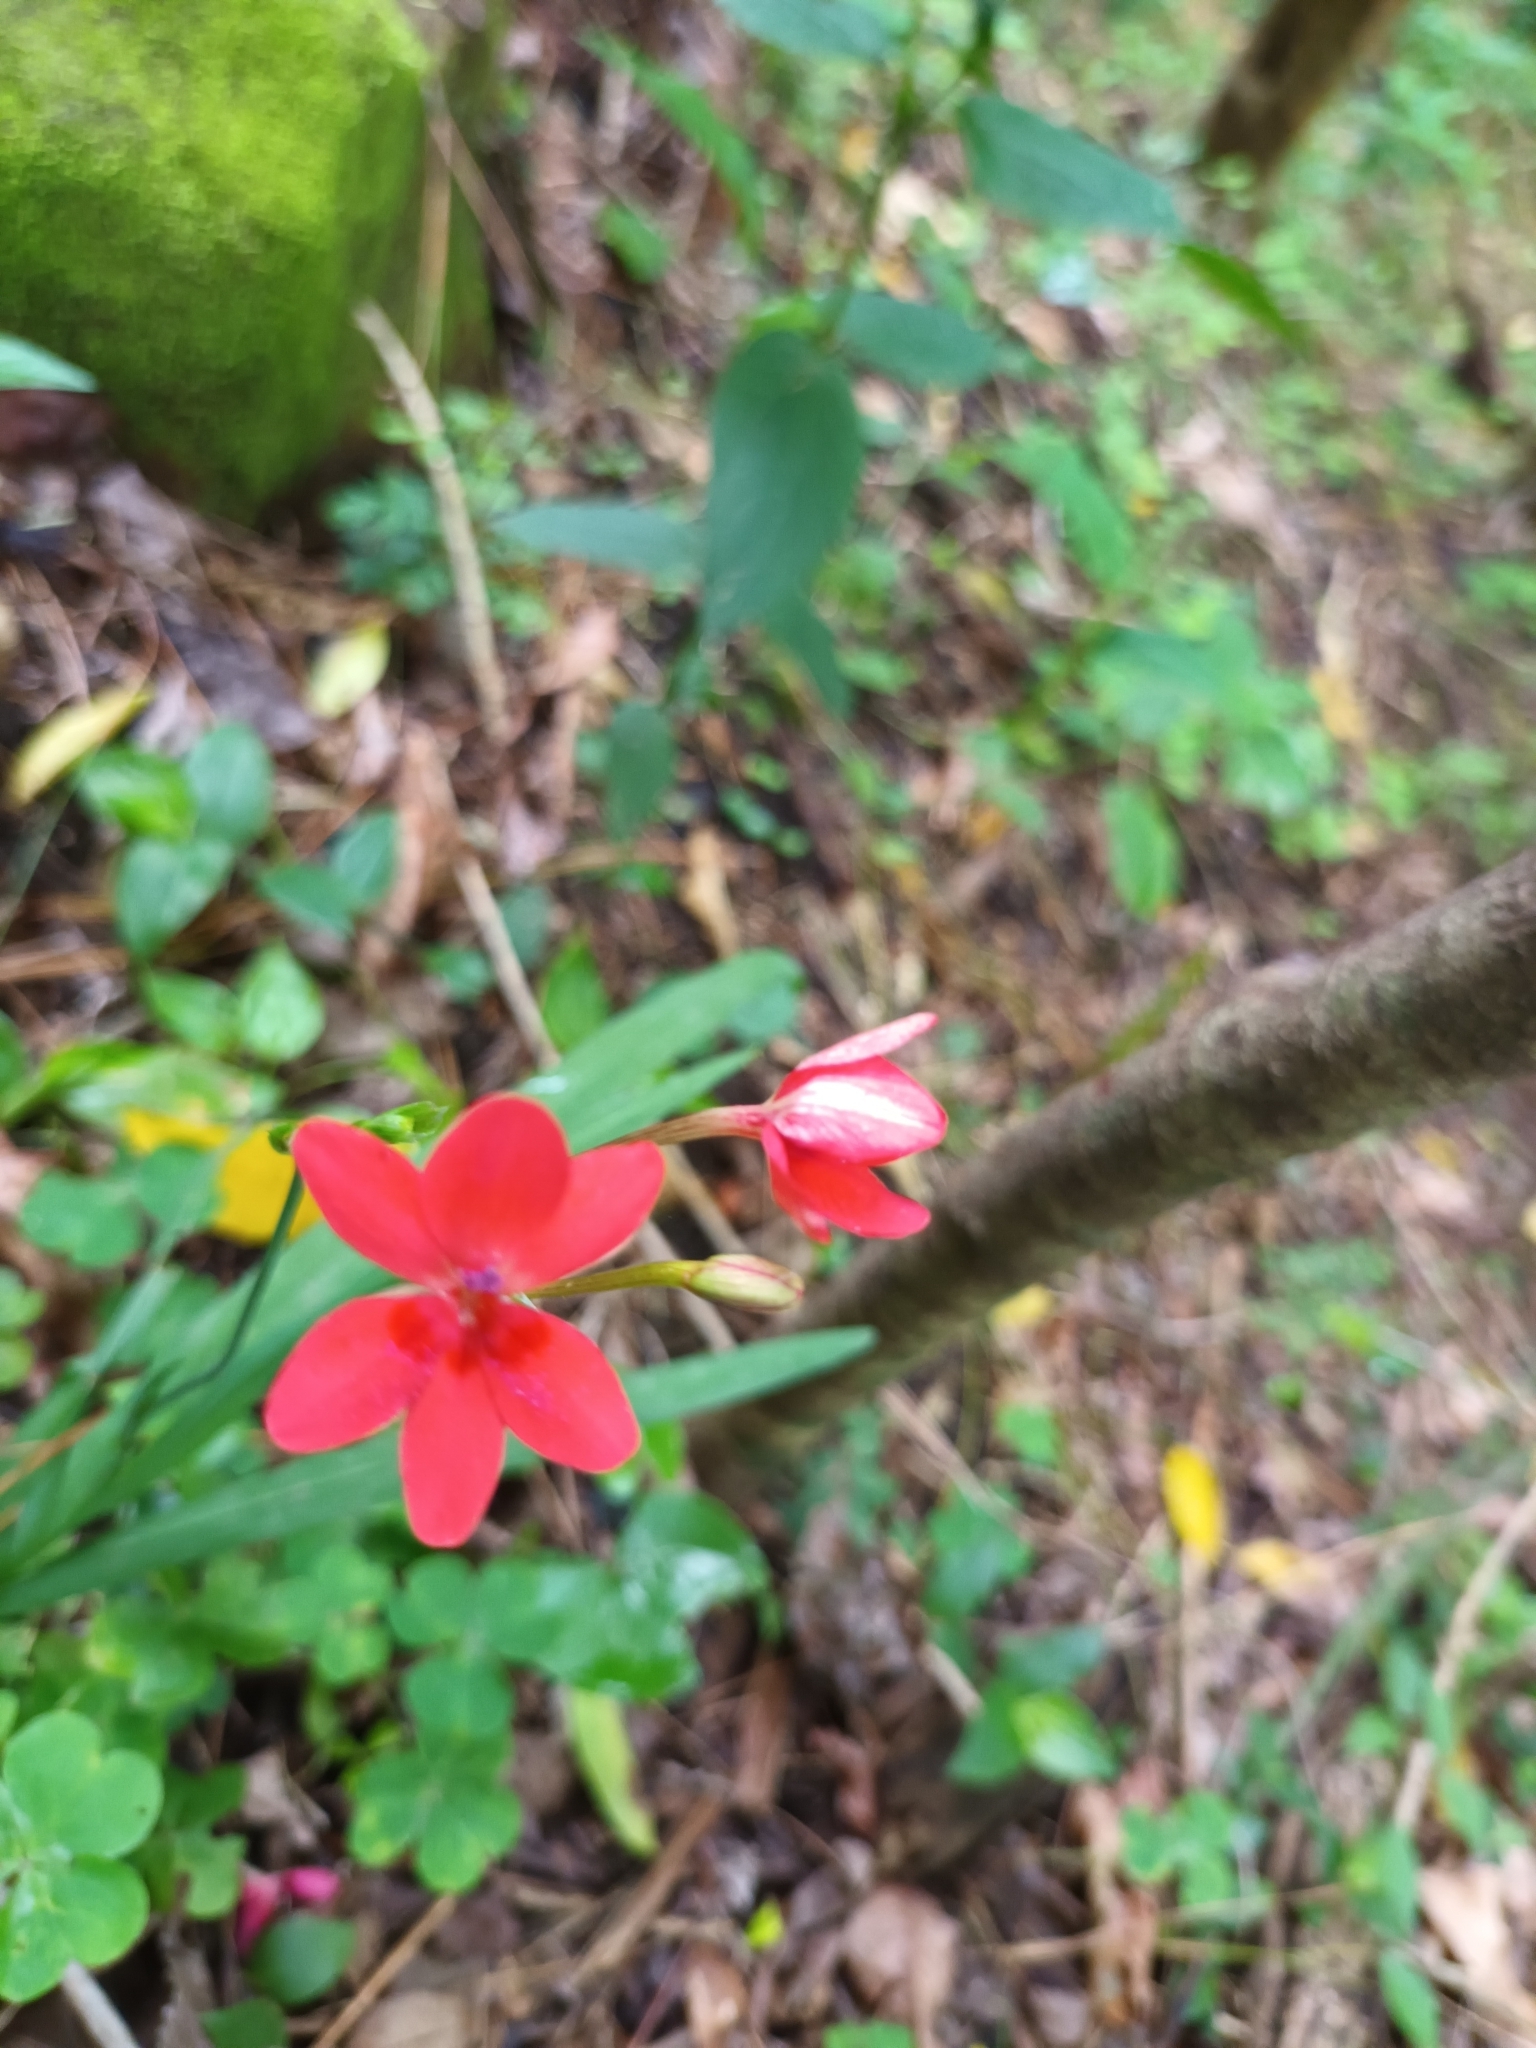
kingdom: Plantae
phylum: Tracheophyta
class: Liliopsida
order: Asparagales
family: Iridaceae
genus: Freesia
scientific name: Freesia laxa
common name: False freesia
